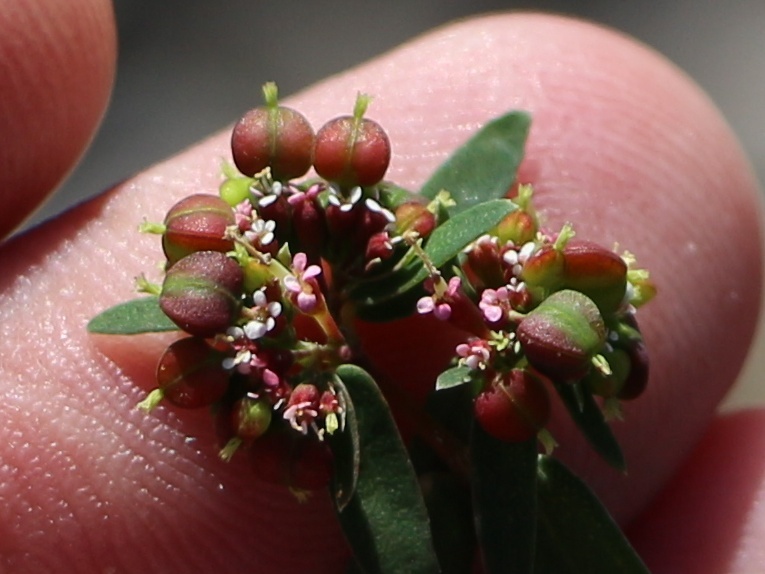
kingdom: Plantae
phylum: Tracheophyta
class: Magnoliopsida
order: Malpighiales
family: Euphorbiaceae
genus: Euphorbia
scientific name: Euphorbia nutans
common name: Eyebane
